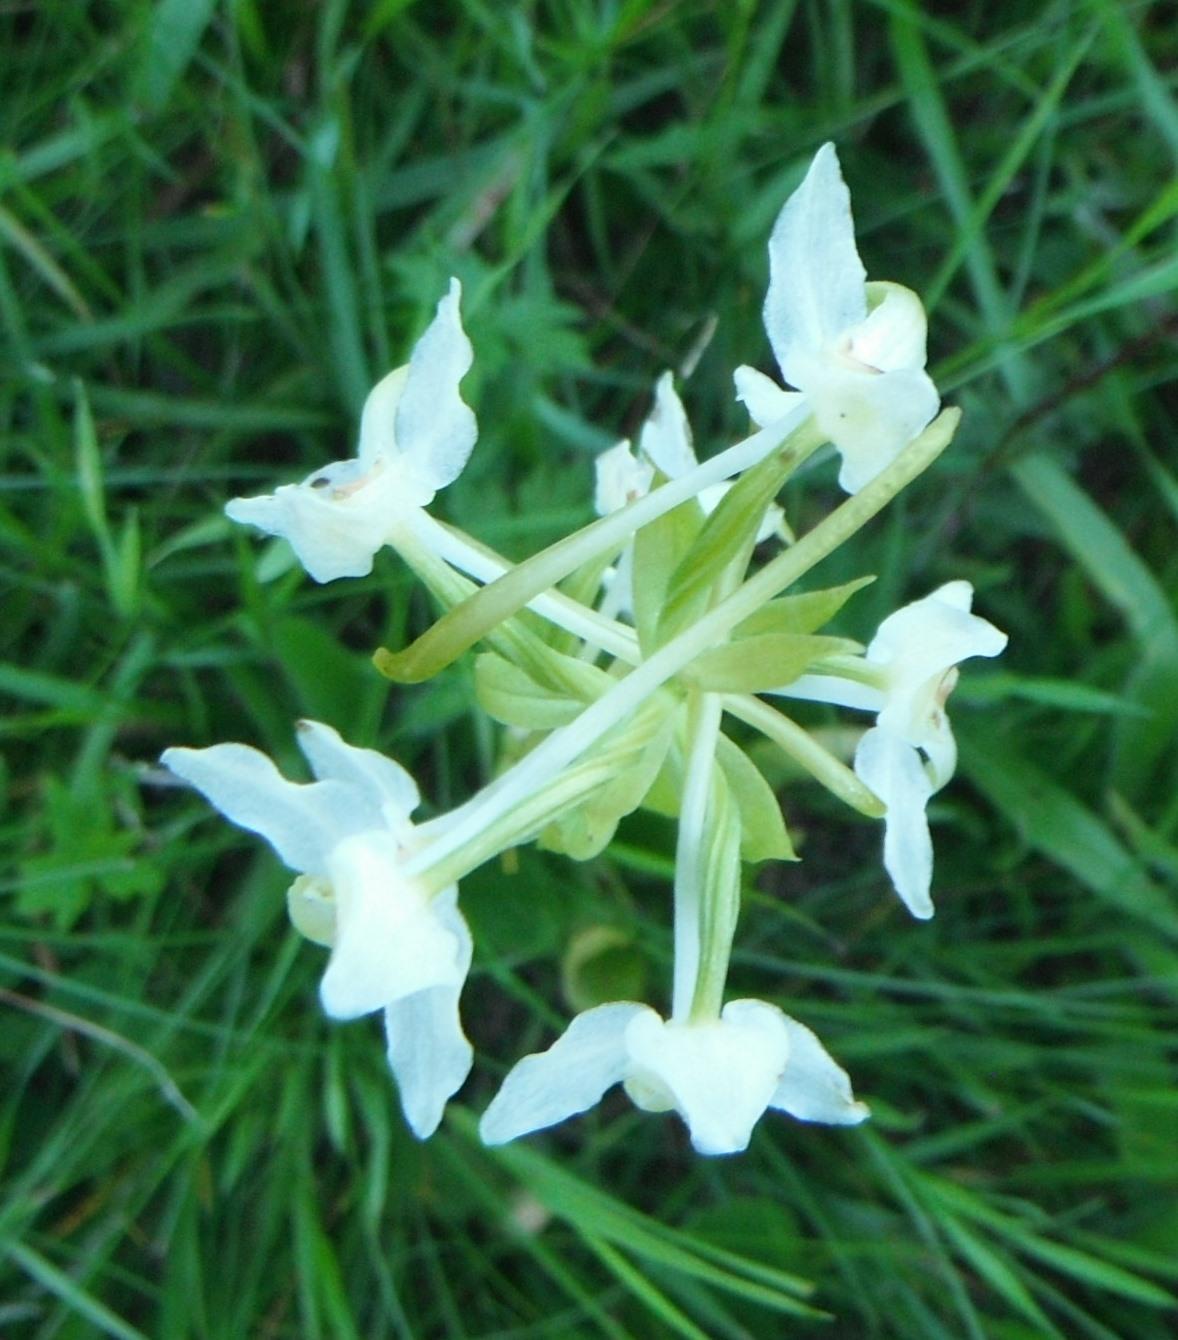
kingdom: Plantae
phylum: Tracheophyta
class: Liliopsida
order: Asparagales
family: Orchidaceae
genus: Platanthera
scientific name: Platanthera chlorantha
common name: Greater butterfly-orchid
